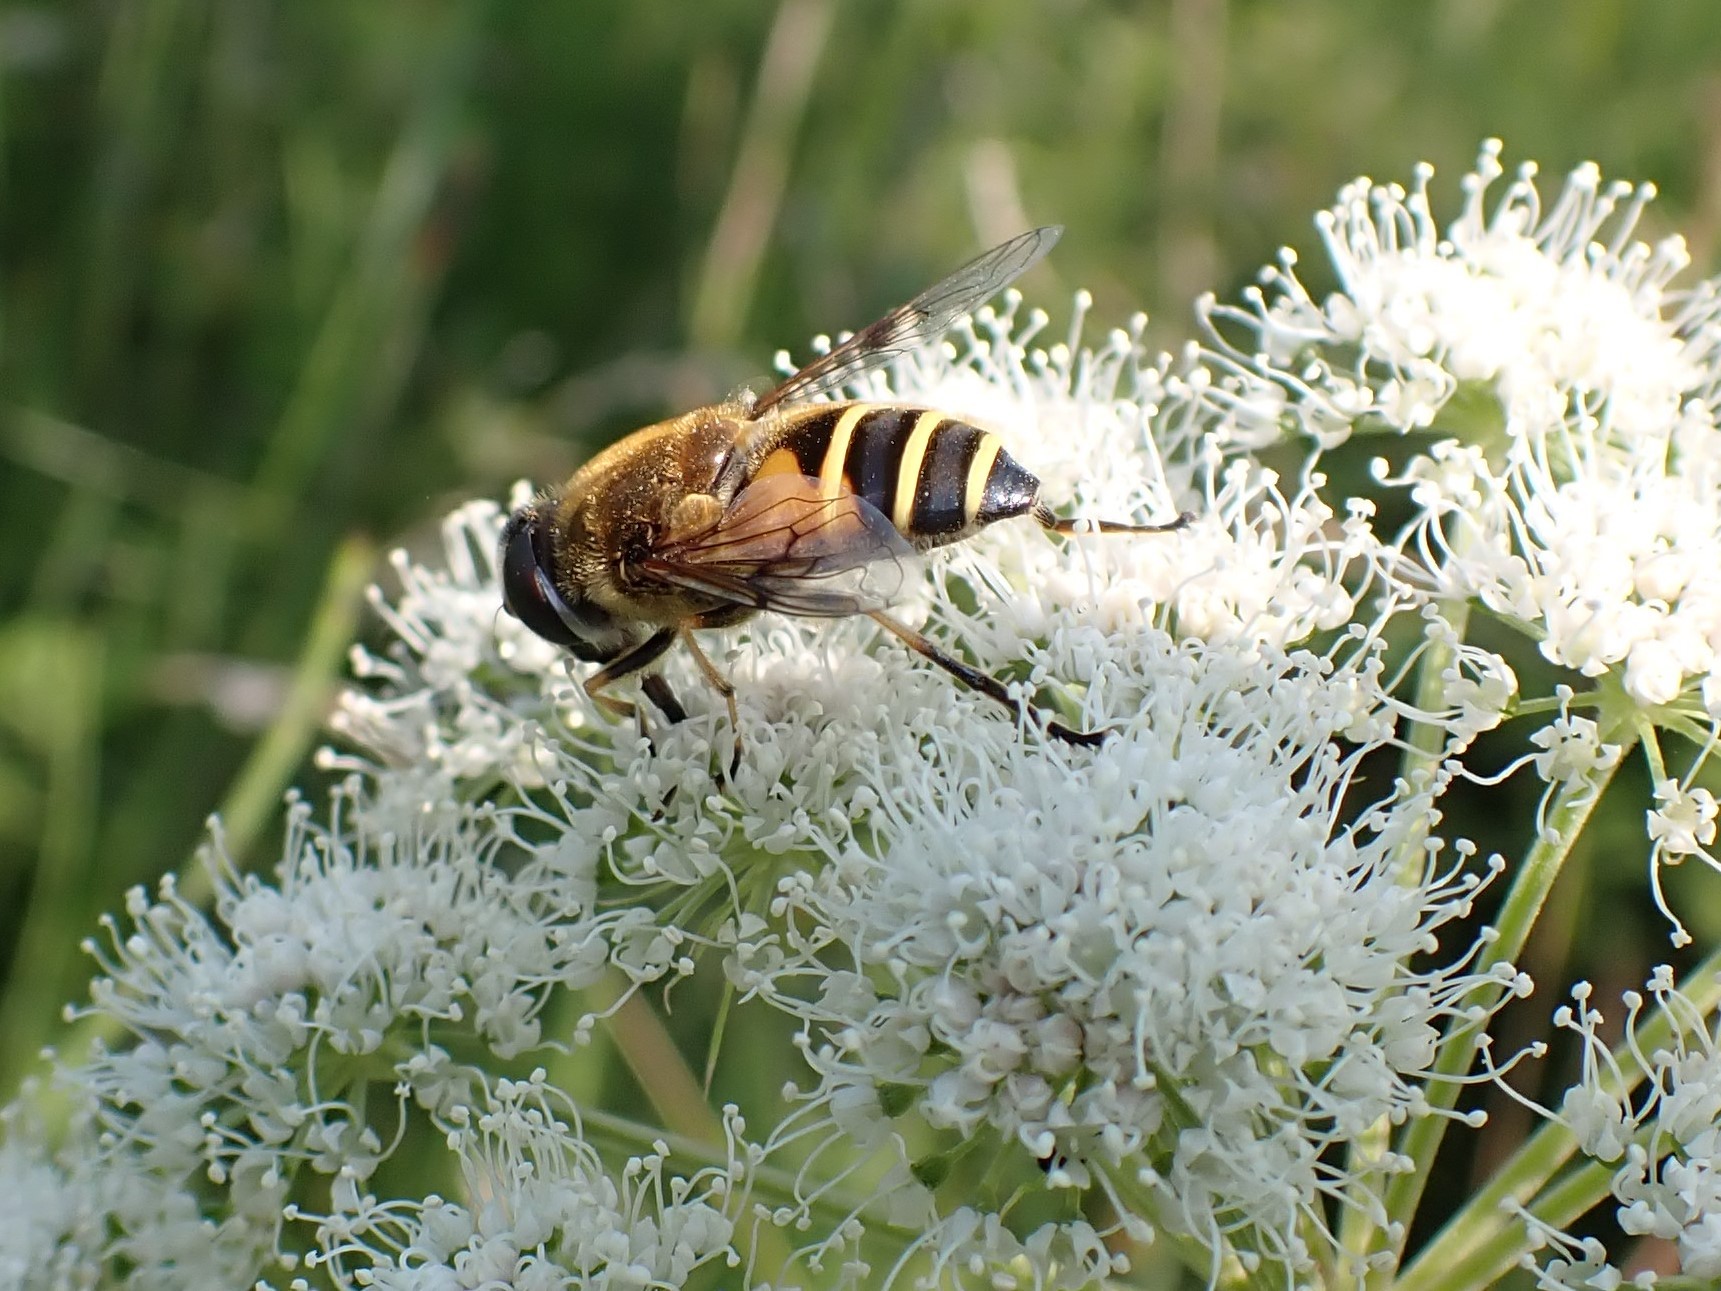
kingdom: Animalia
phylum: Arthropoda
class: Insecta
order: Diptera
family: Syrphidae
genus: Cheilosia
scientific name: Cheilosia morio
